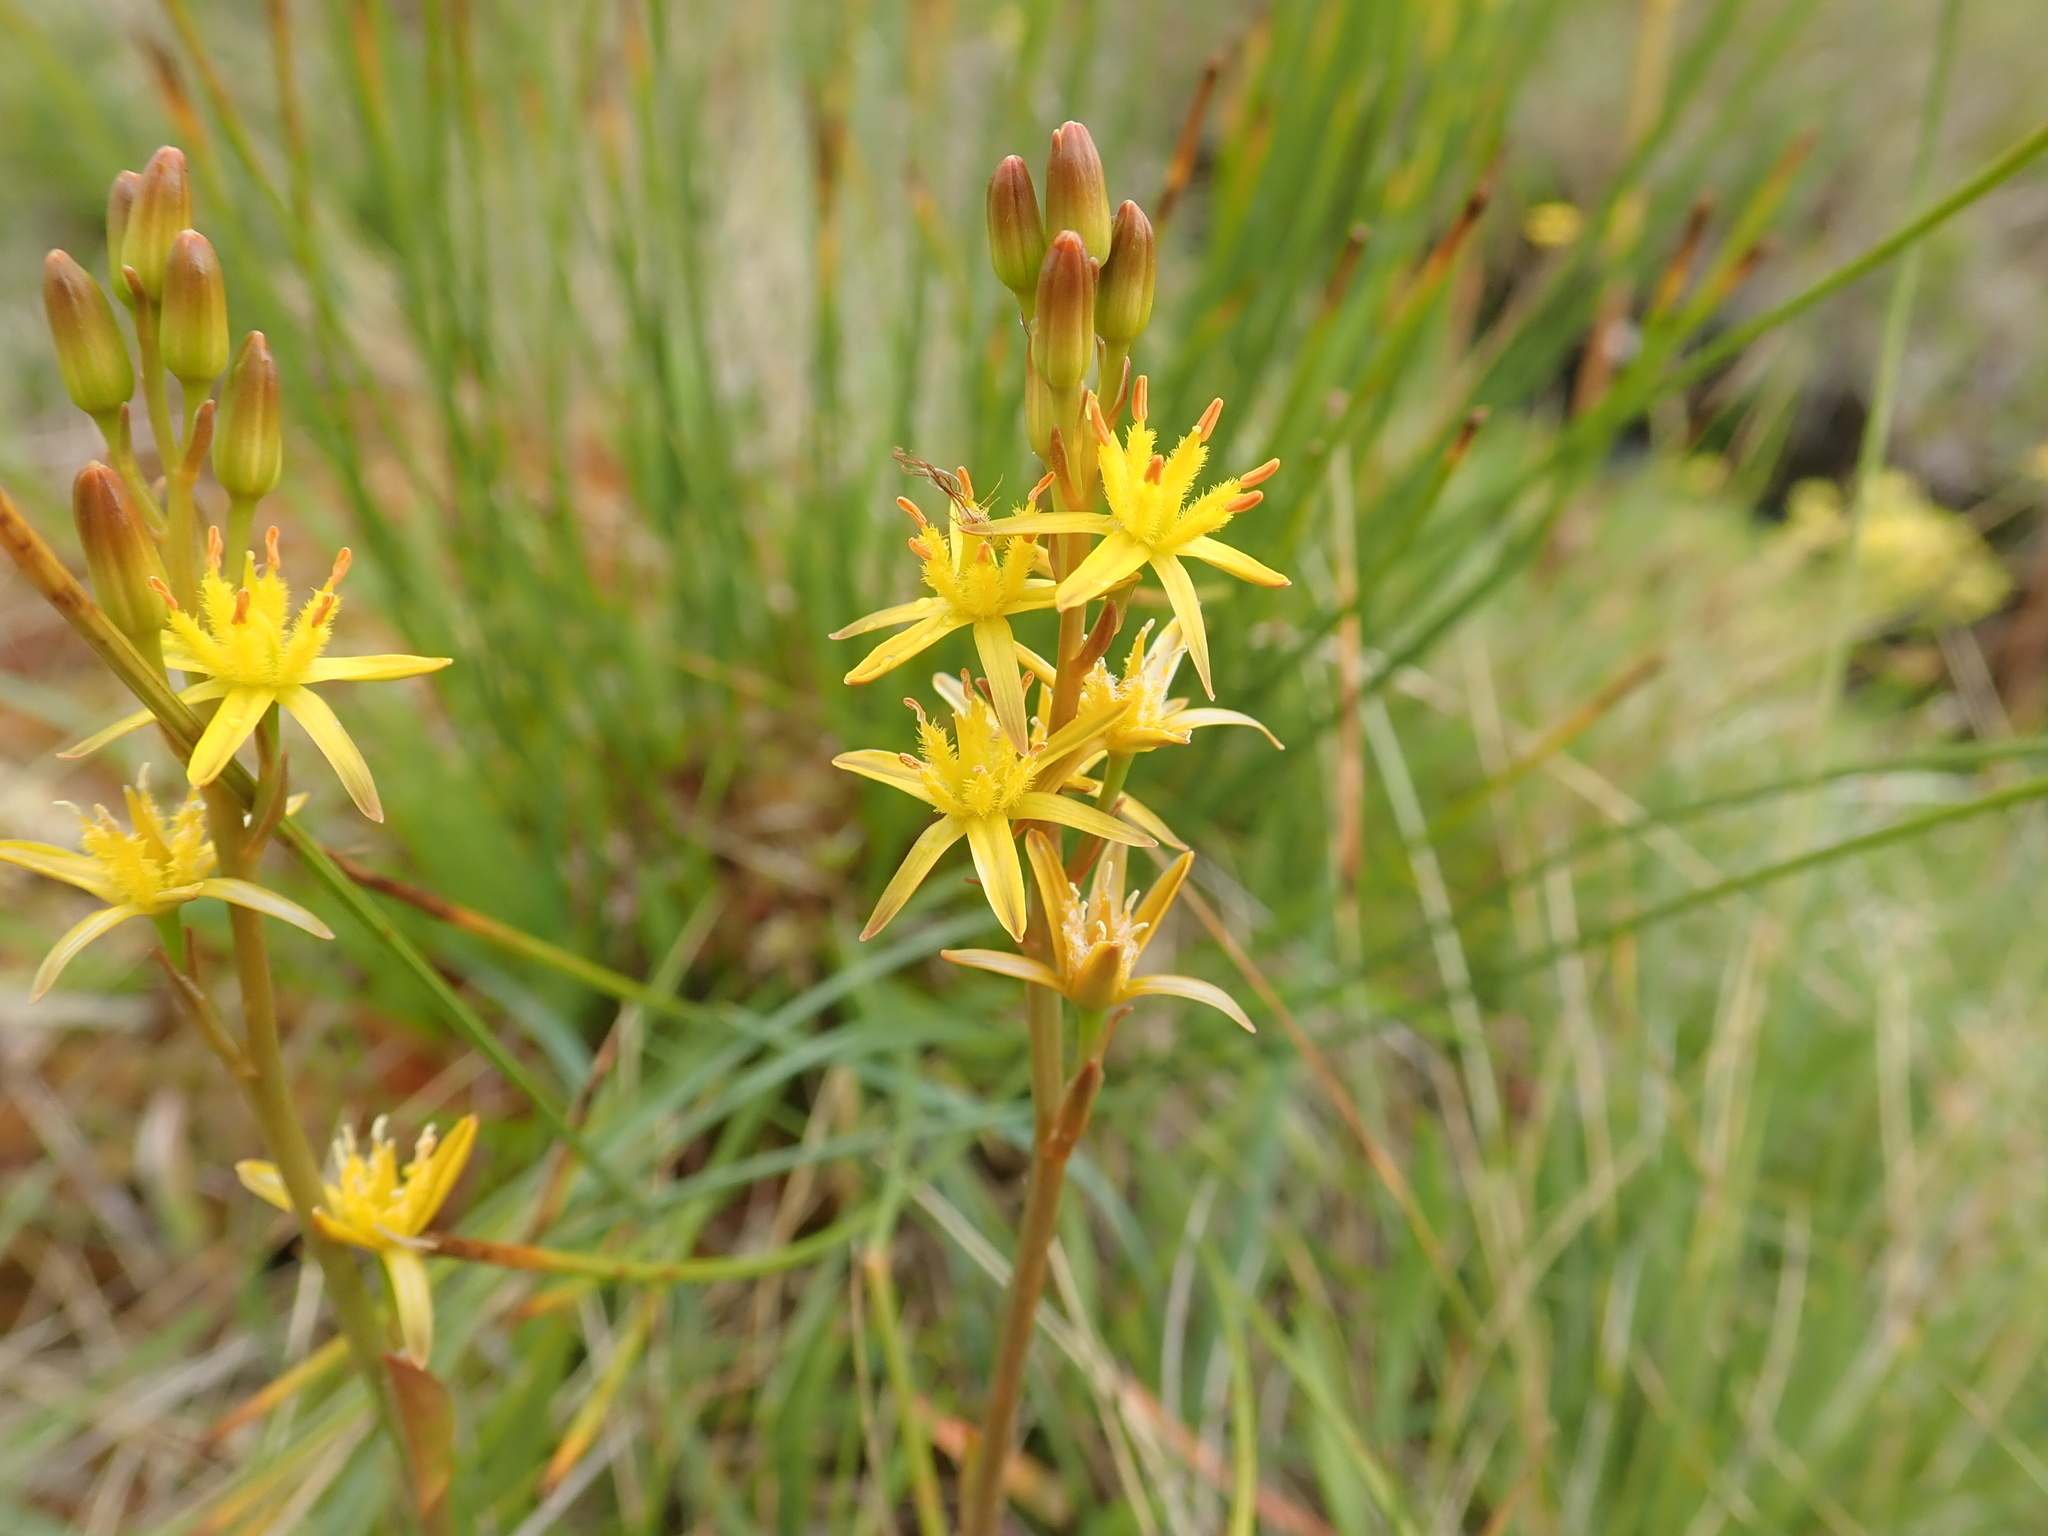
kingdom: Plantae
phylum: Tracheophyta
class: Liliopsida
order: Dioscoreales
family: Nartheciaceae
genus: Narthecium
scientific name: Narthecium ossifragum
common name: Bog asphodel
